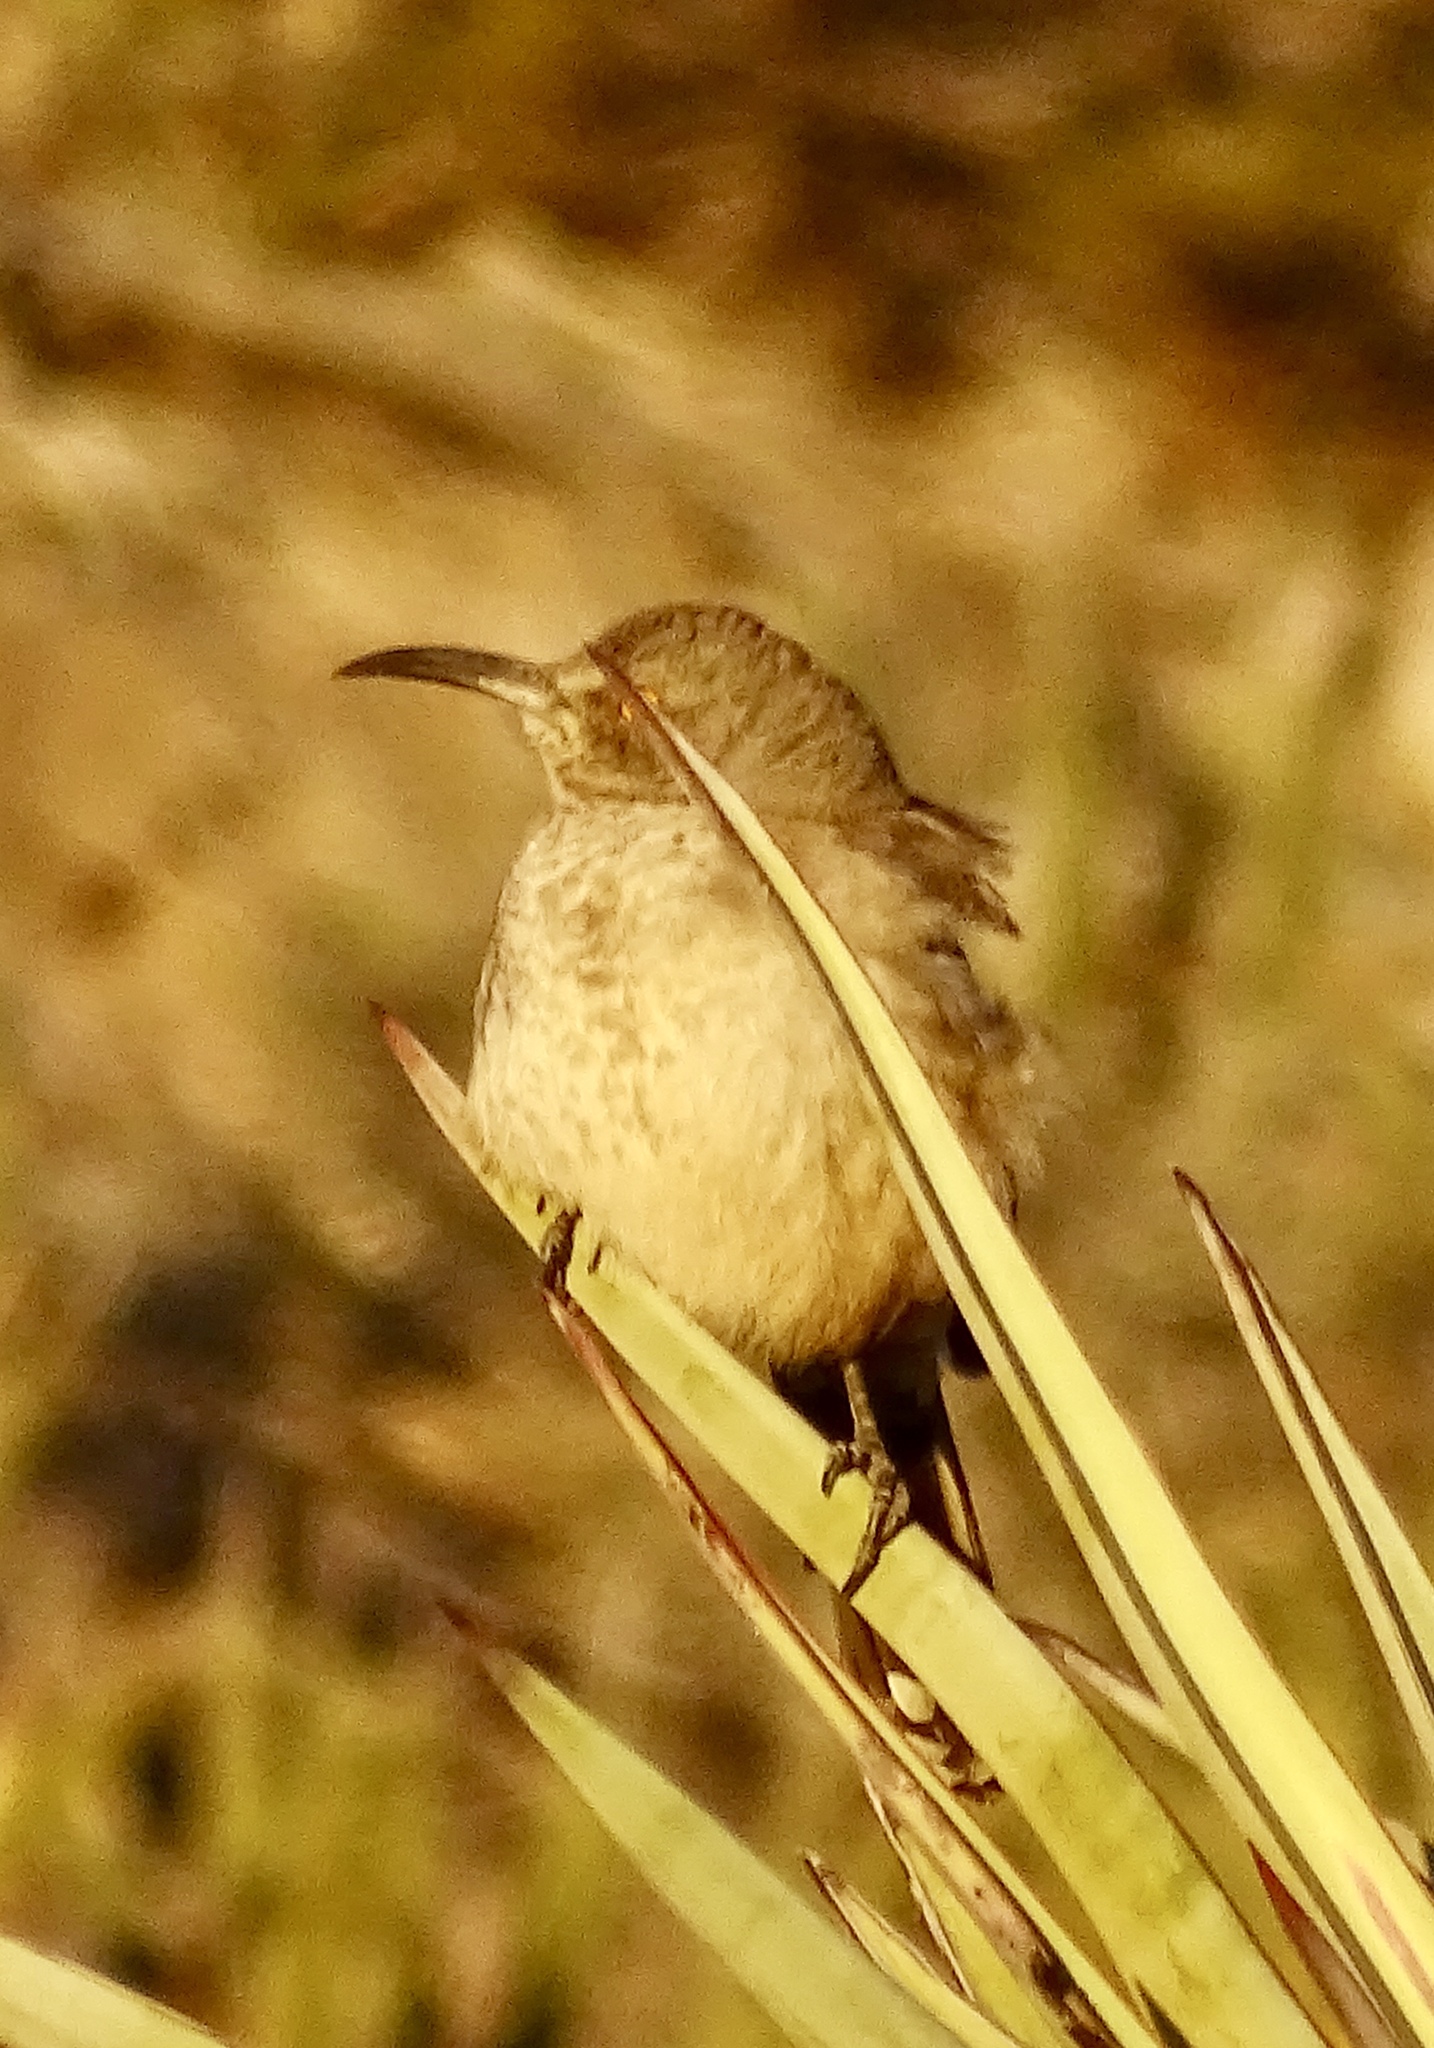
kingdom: Animalia
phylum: Chordata
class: Aves
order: Passeriformes
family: Mimidae
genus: Toxostoma
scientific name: Toxostoma curvirostre
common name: Curve-billed thrasher
